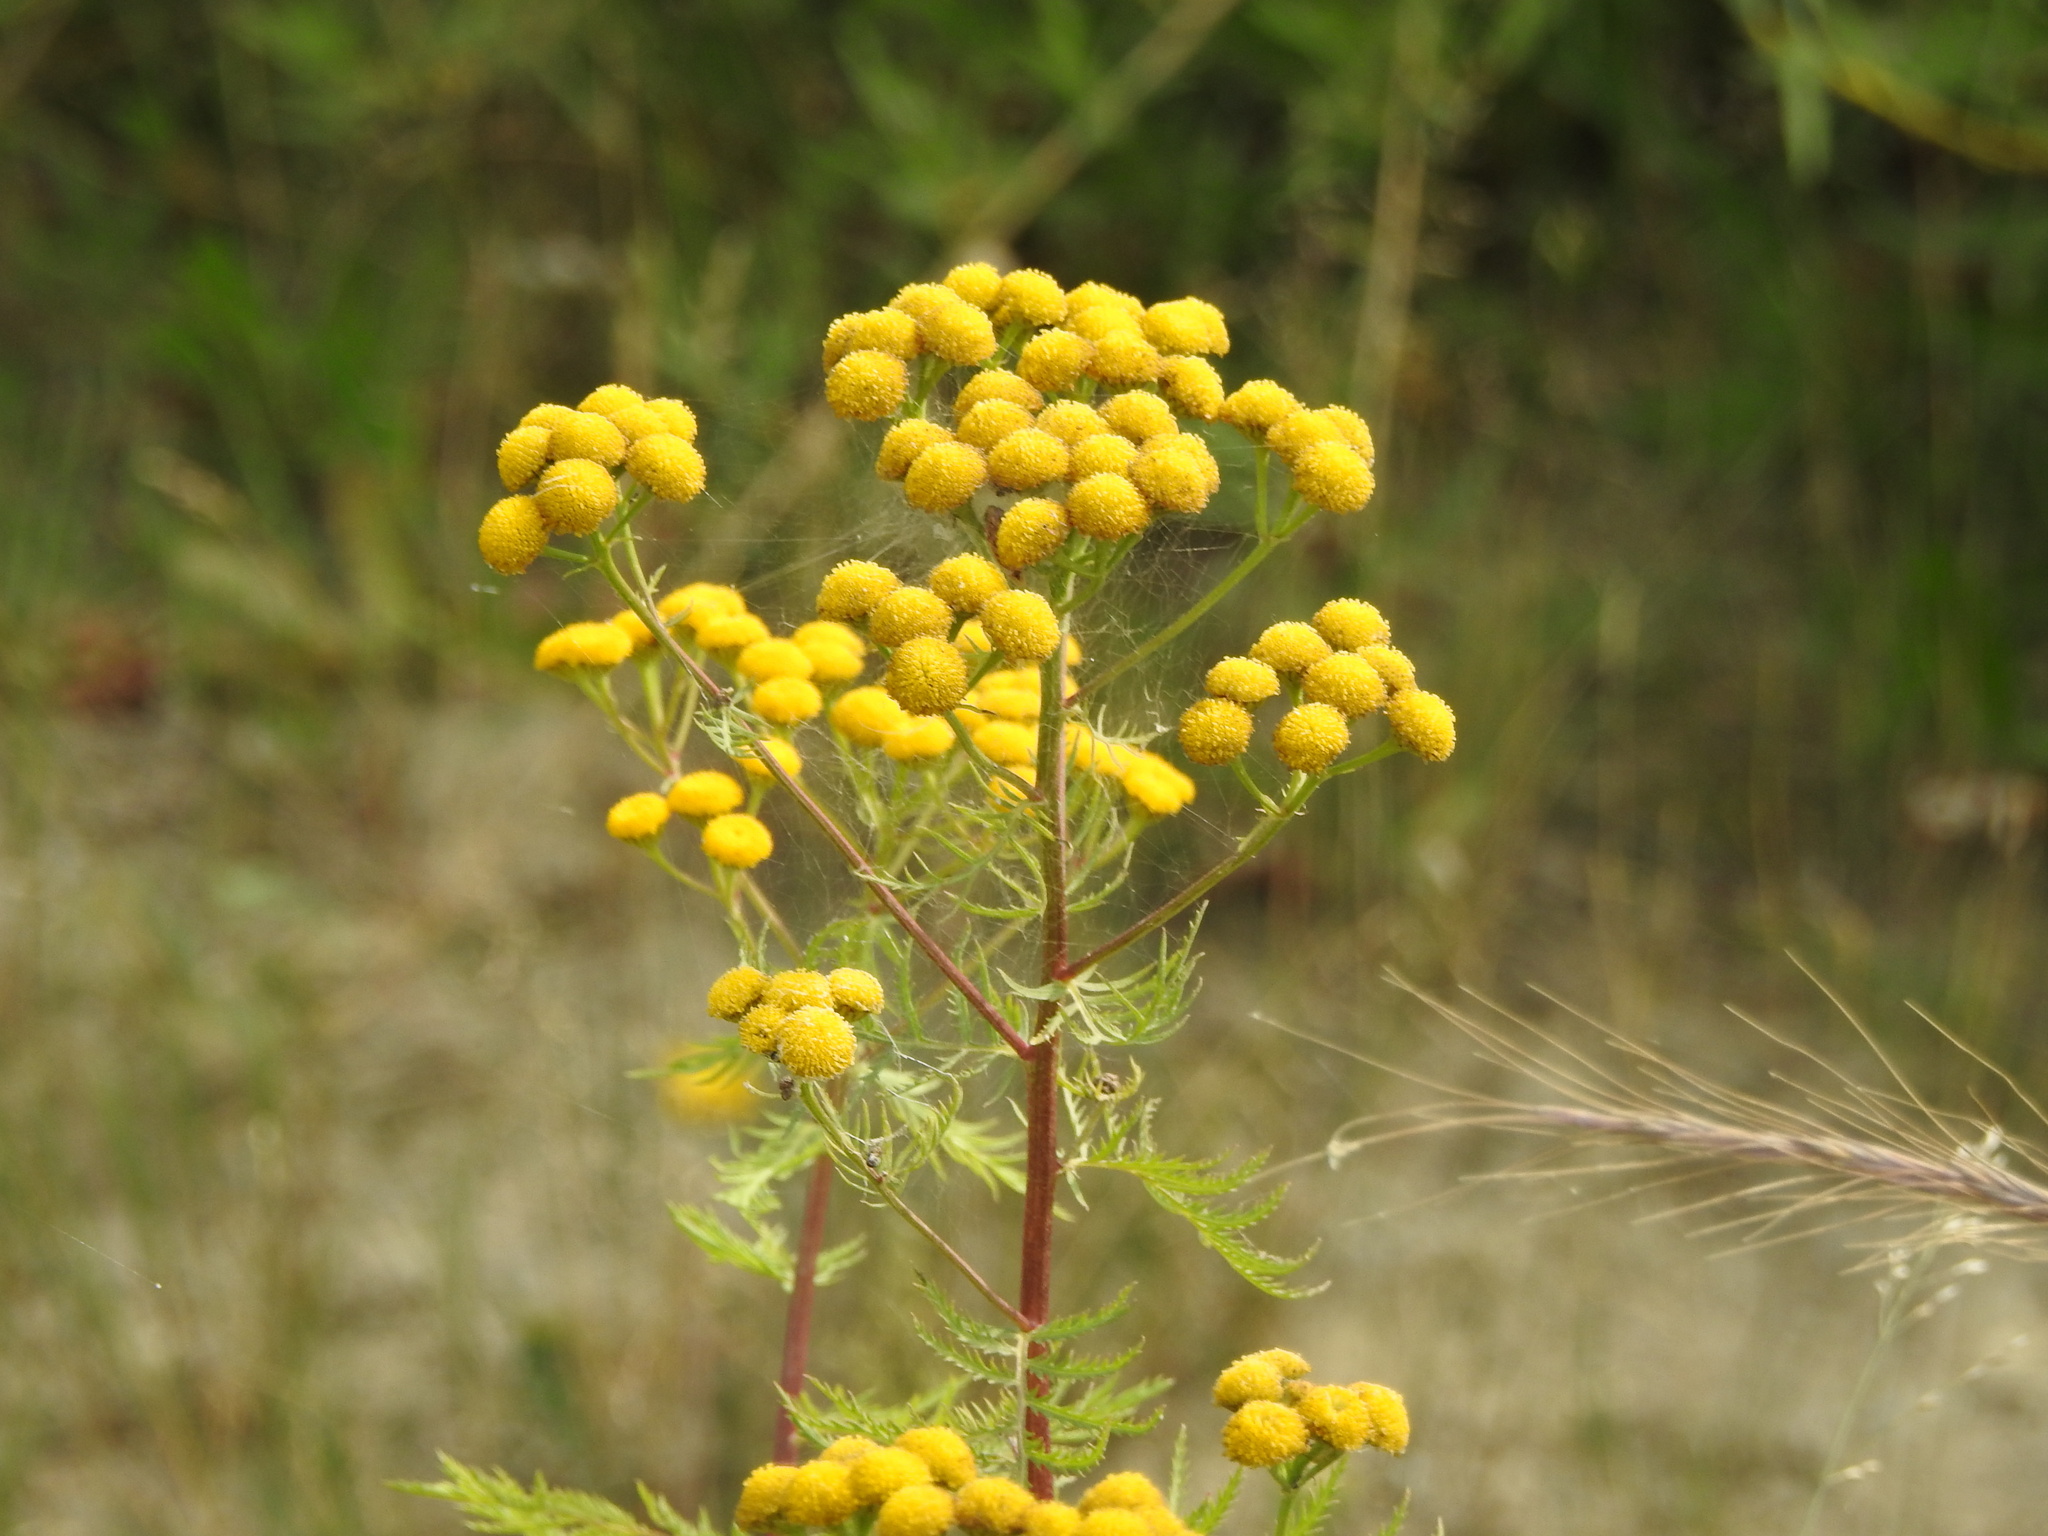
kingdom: Plantae
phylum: Tracheophyta
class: Magnoliopsida
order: Asterales
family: Asteraceae
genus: Tanacetum
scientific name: Tanacetum vulgare
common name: Common tansy
